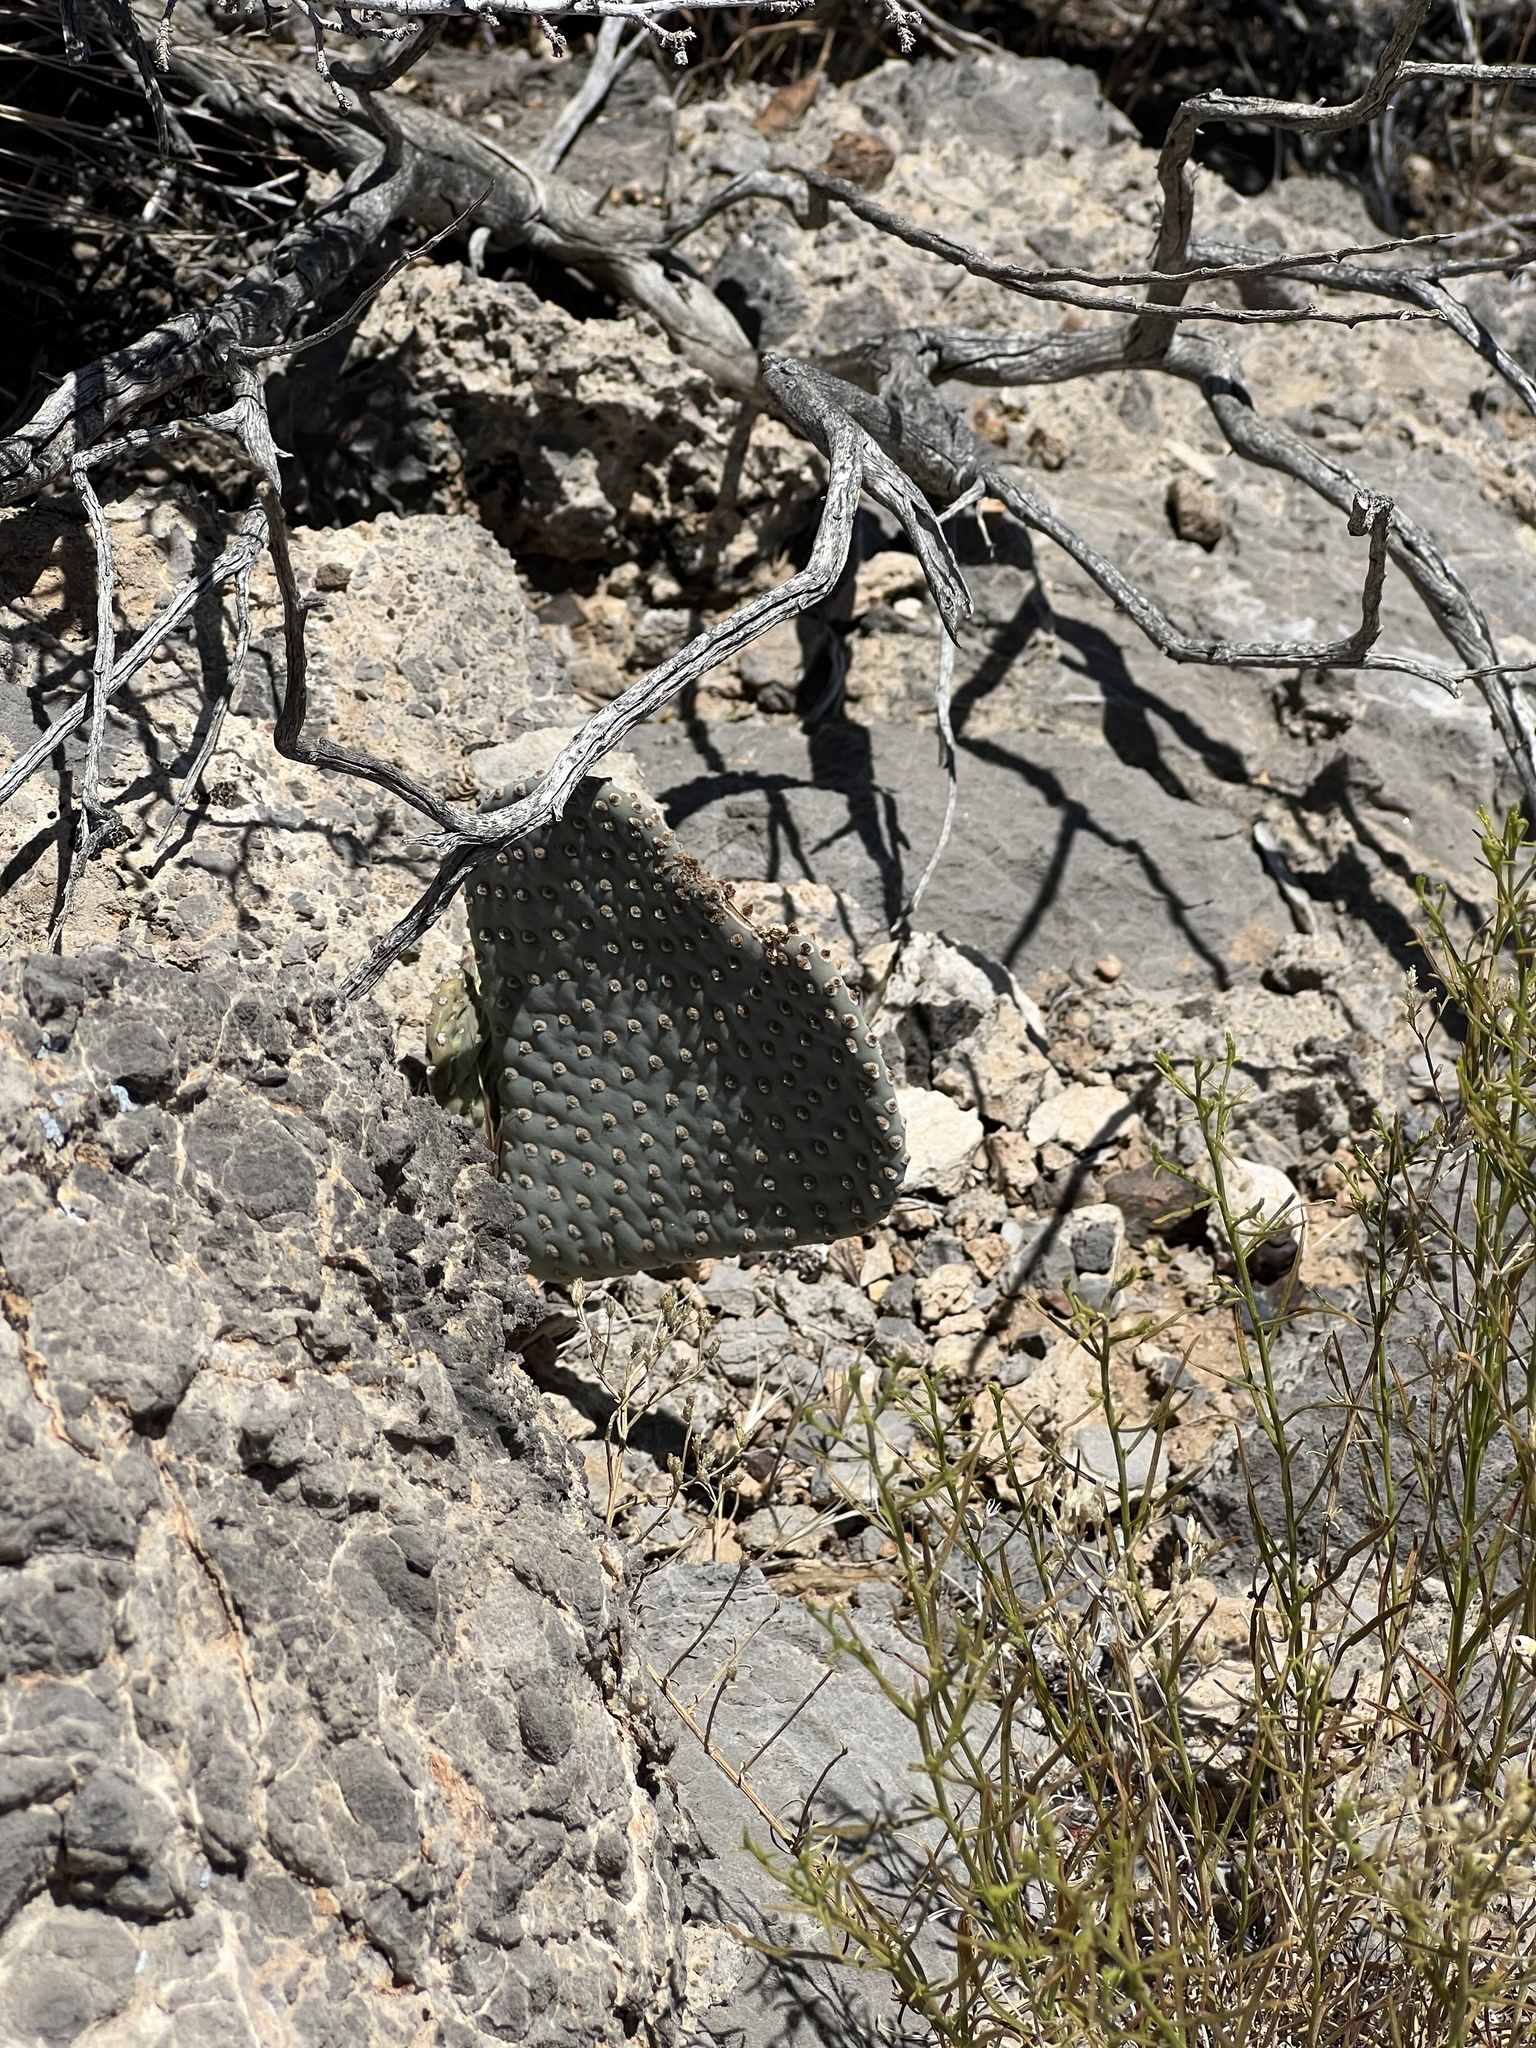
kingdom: Plantae
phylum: Tracheophyta
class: Magnoliopsida
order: Caryophyllales
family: Cactaceae
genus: Opuntia
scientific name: Opuntia basilaris
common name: Beavertail prickly-pear
